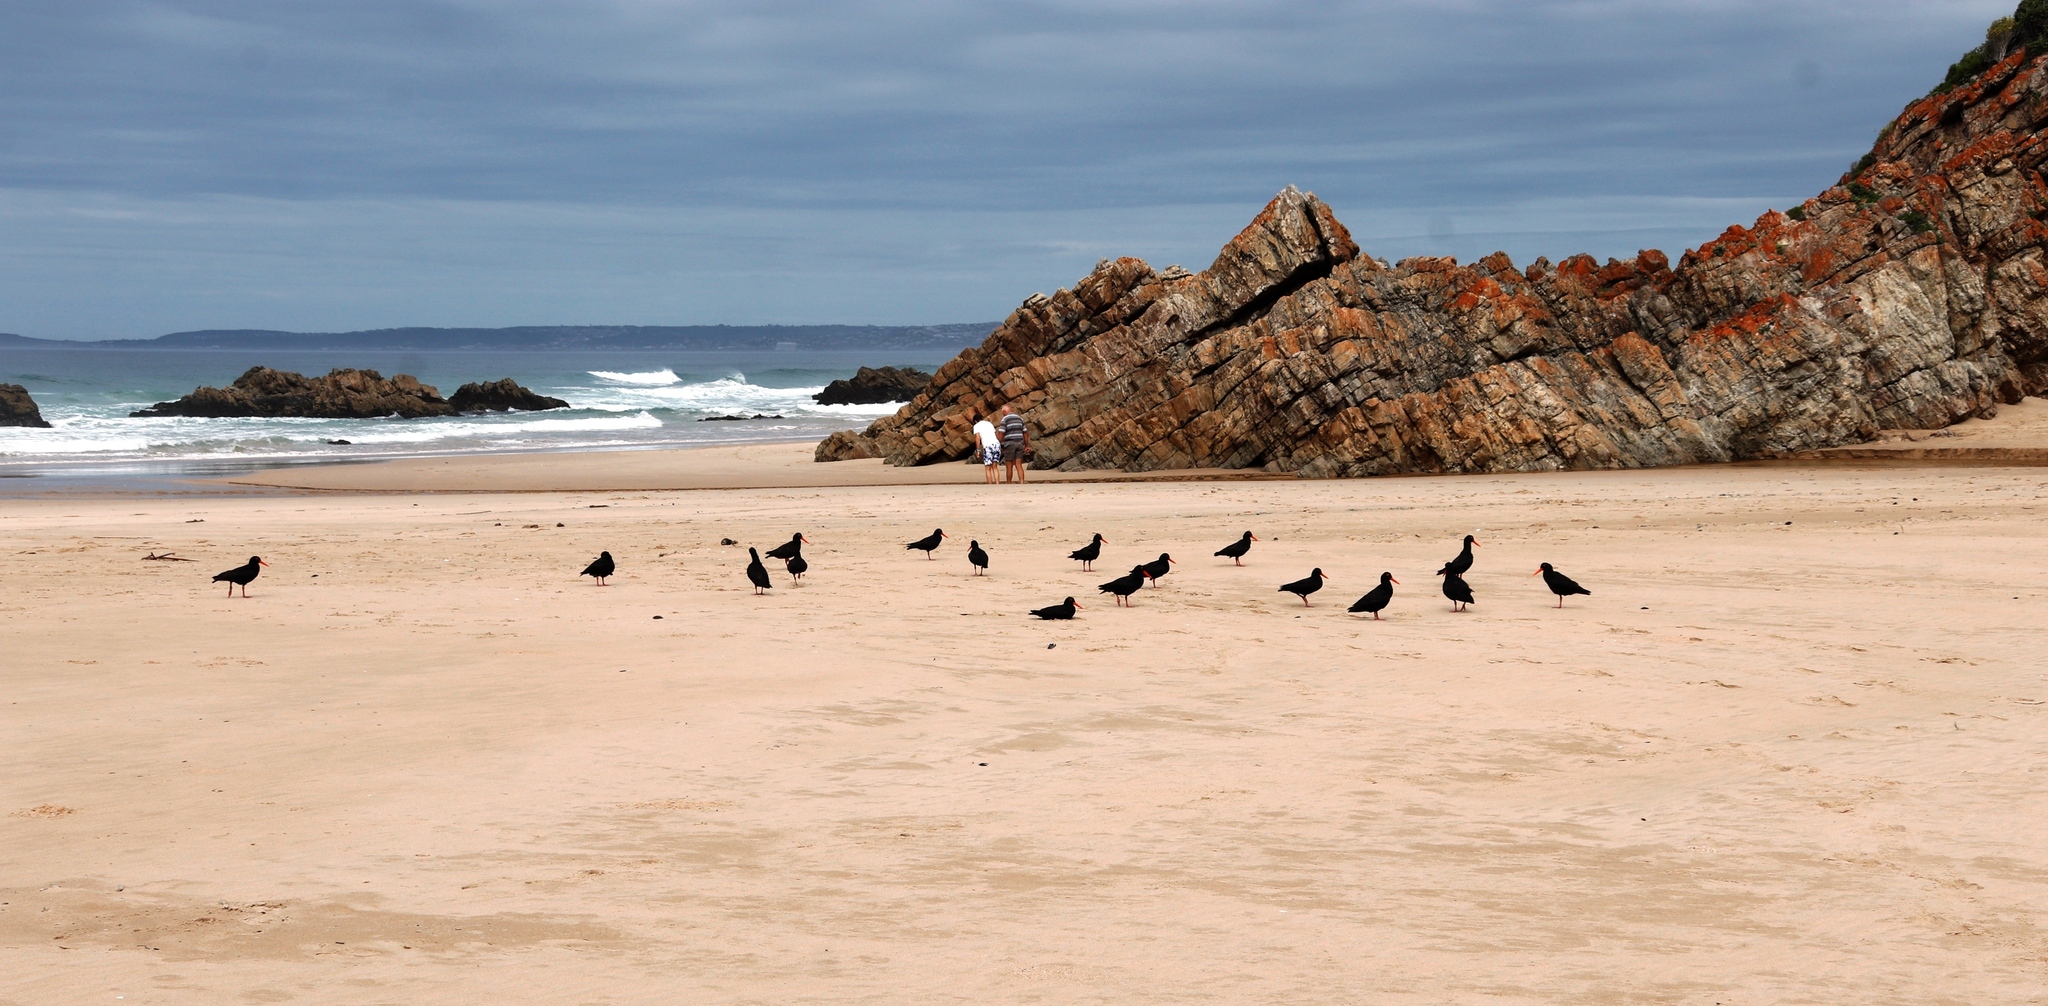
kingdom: Animalia
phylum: Chordata
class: Aves
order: Charadriiformes
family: Haematopodidae
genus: Haematopus
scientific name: Haematopus moquini
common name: African oystercatcher
